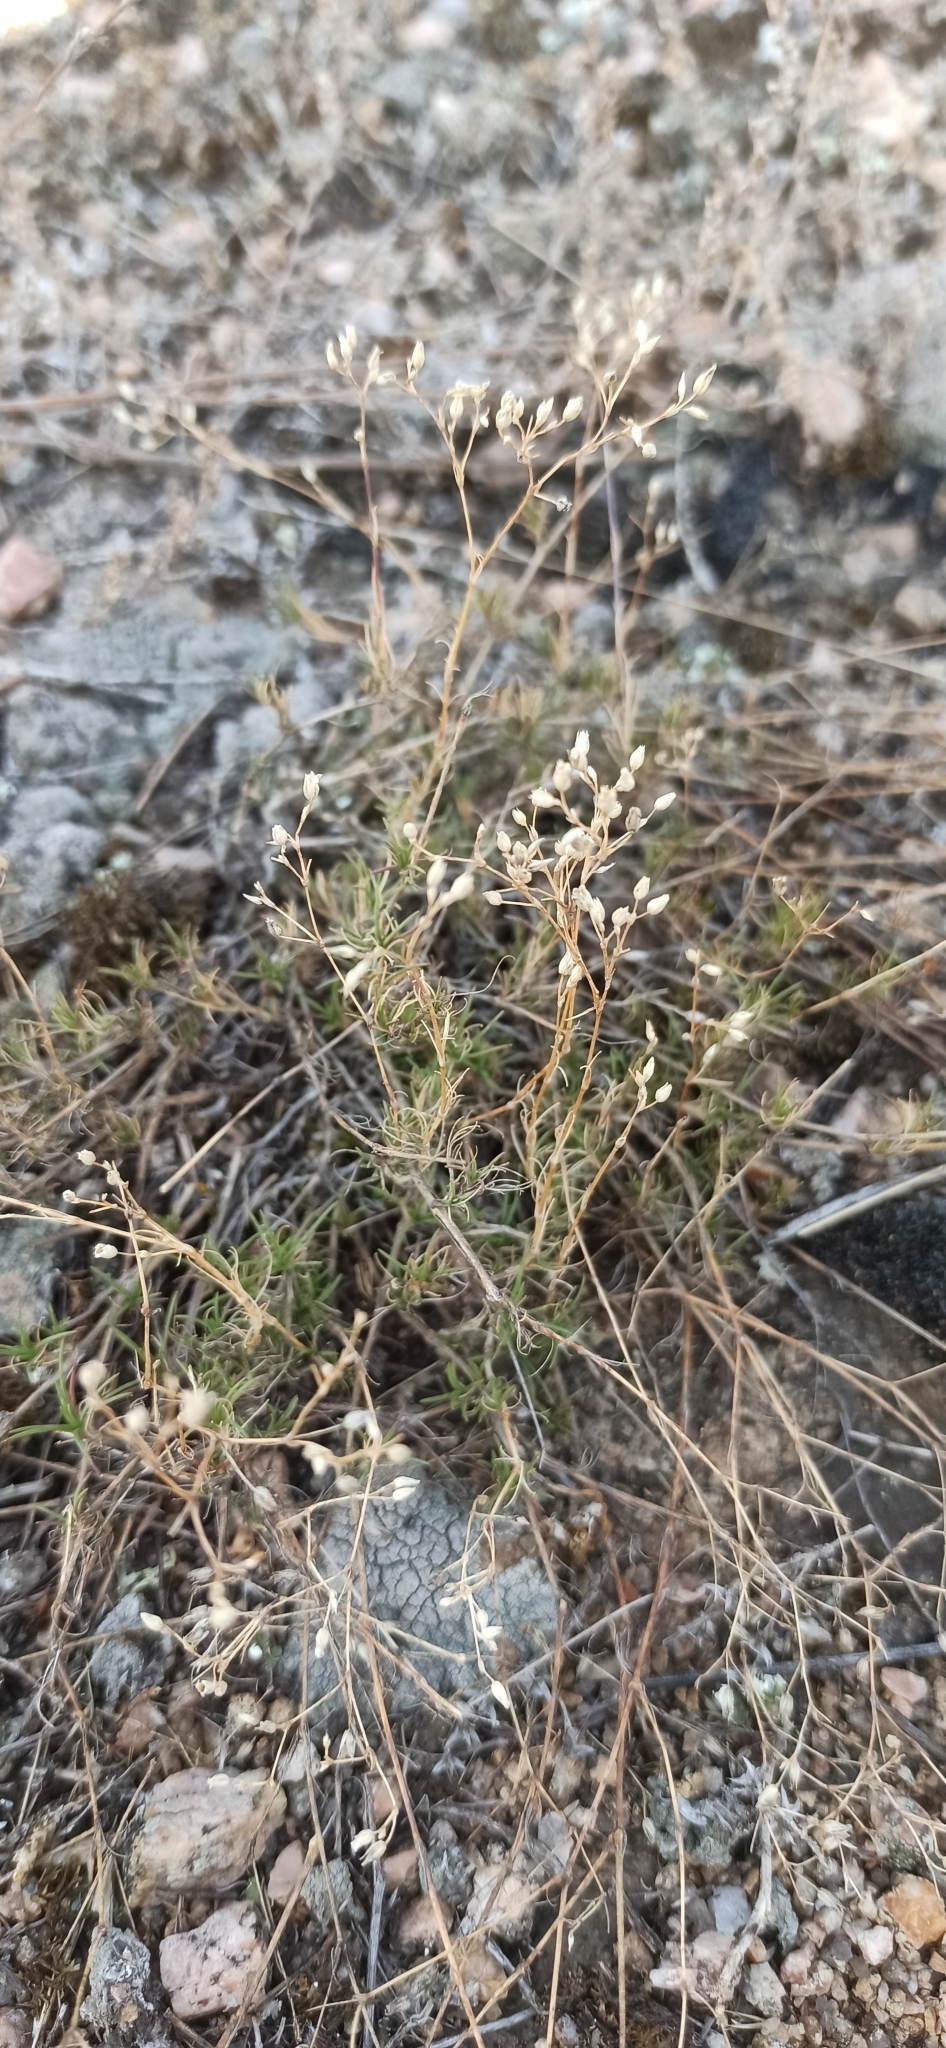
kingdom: Plantae
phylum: Tracheophyta
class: Magnoliopsida
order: Caryophyllales
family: Caryophyllaceae
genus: Minuartia
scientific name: Minuartia setacea
